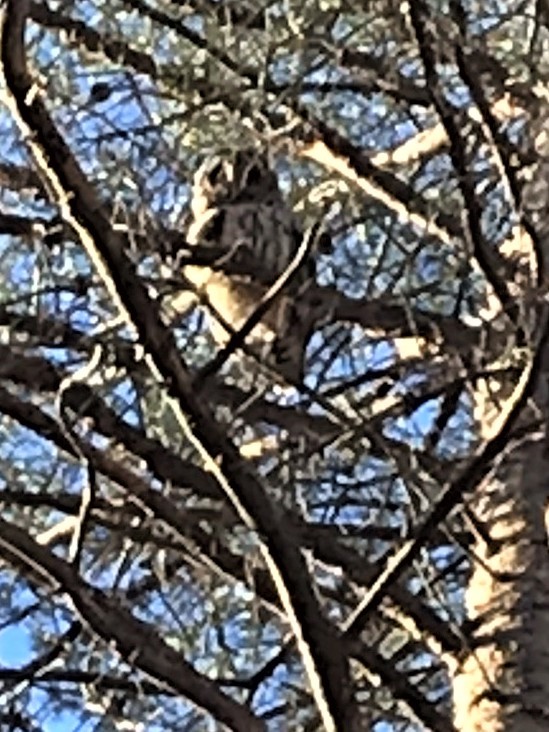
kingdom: Animalia
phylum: Chordata
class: Aves
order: Strigiformes
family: Strigidae
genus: Strix
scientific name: Strix varia
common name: Barred owl
